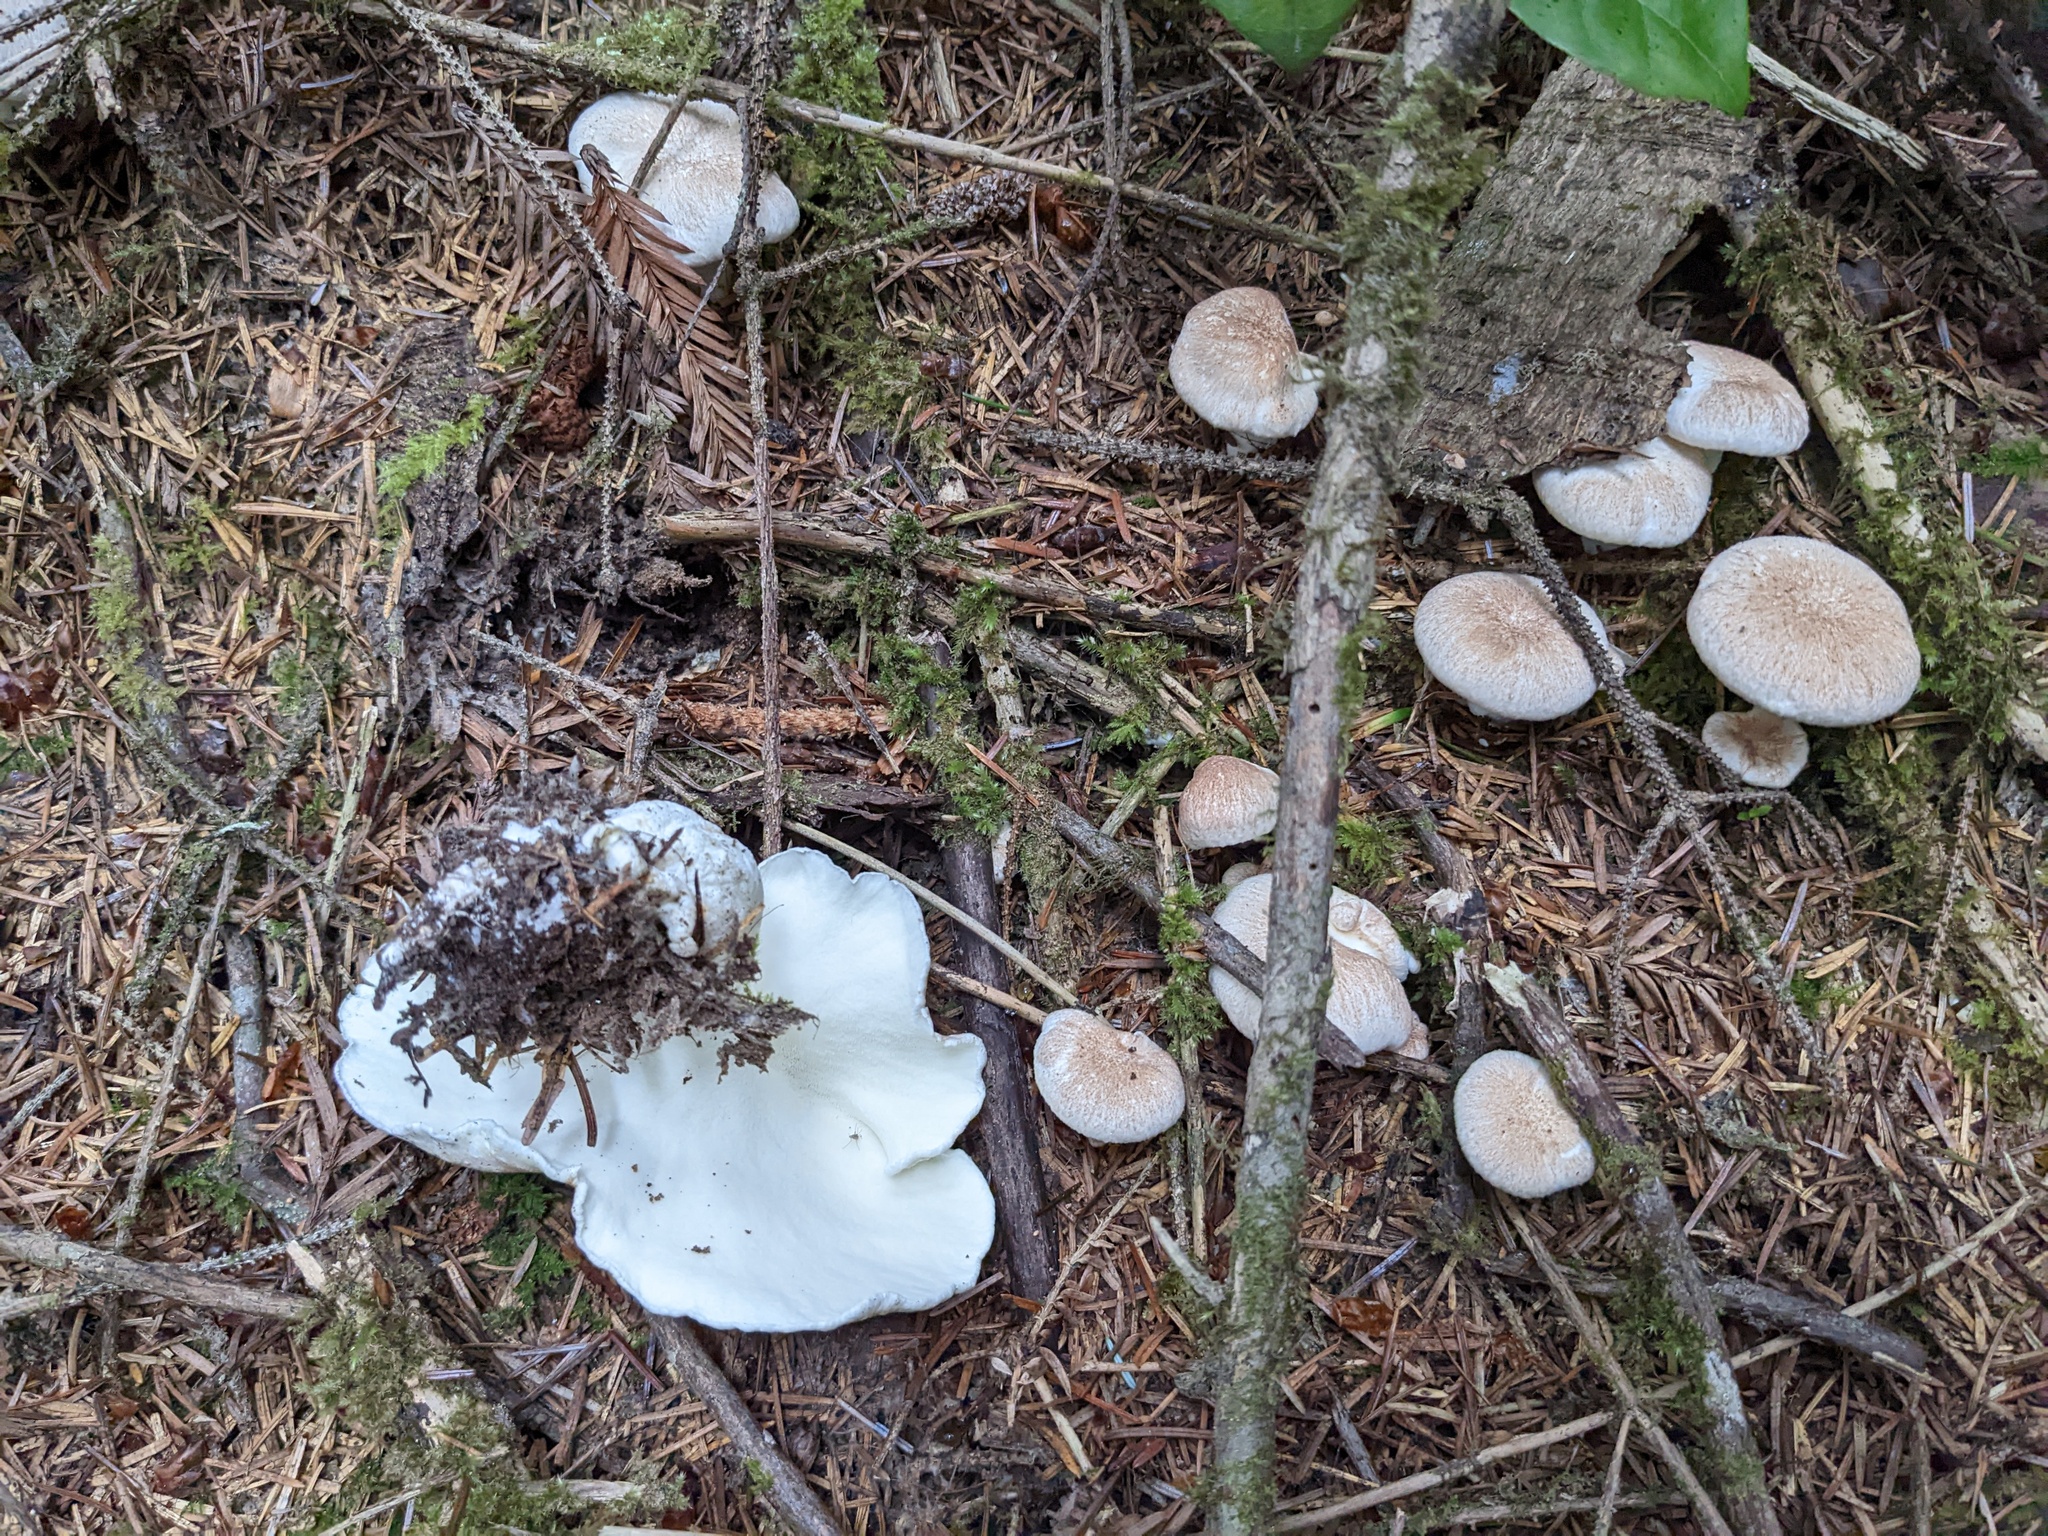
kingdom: Fungi
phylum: Basidiomycota
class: Agaricomycetes
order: Russulales
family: Albatrellaceae
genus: Albatrellus
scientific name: Albatrellus avellaneus
